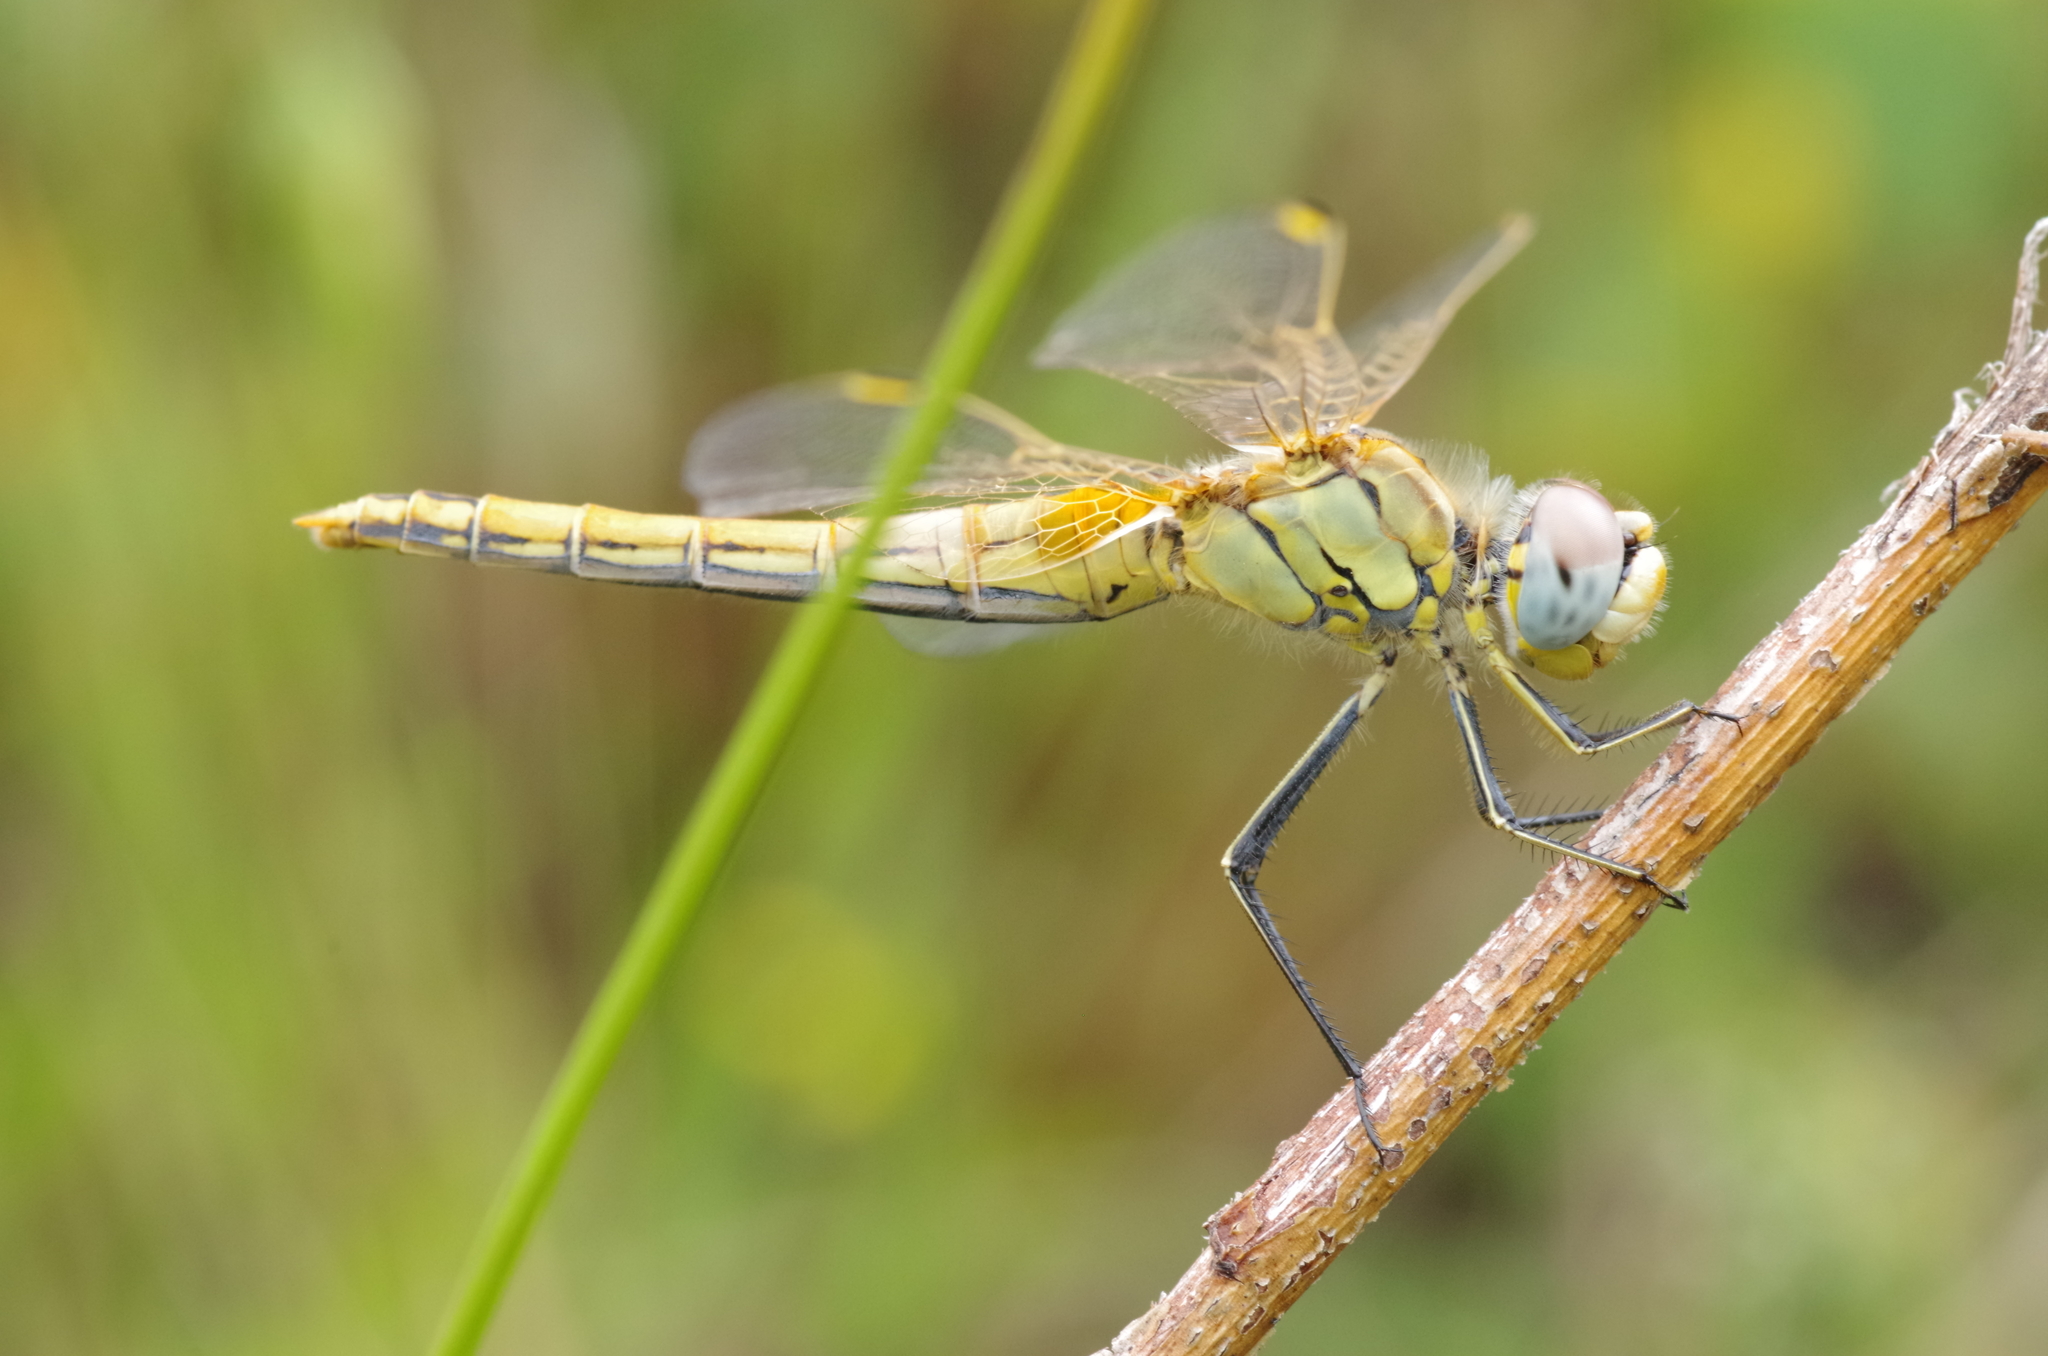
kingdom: Animalia
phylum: Arthropoda
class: Insecta
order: Odonata
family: Libellulidae
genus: Sympetrum
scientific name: Sympetrum fonscolombii
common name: Red-veined darter
